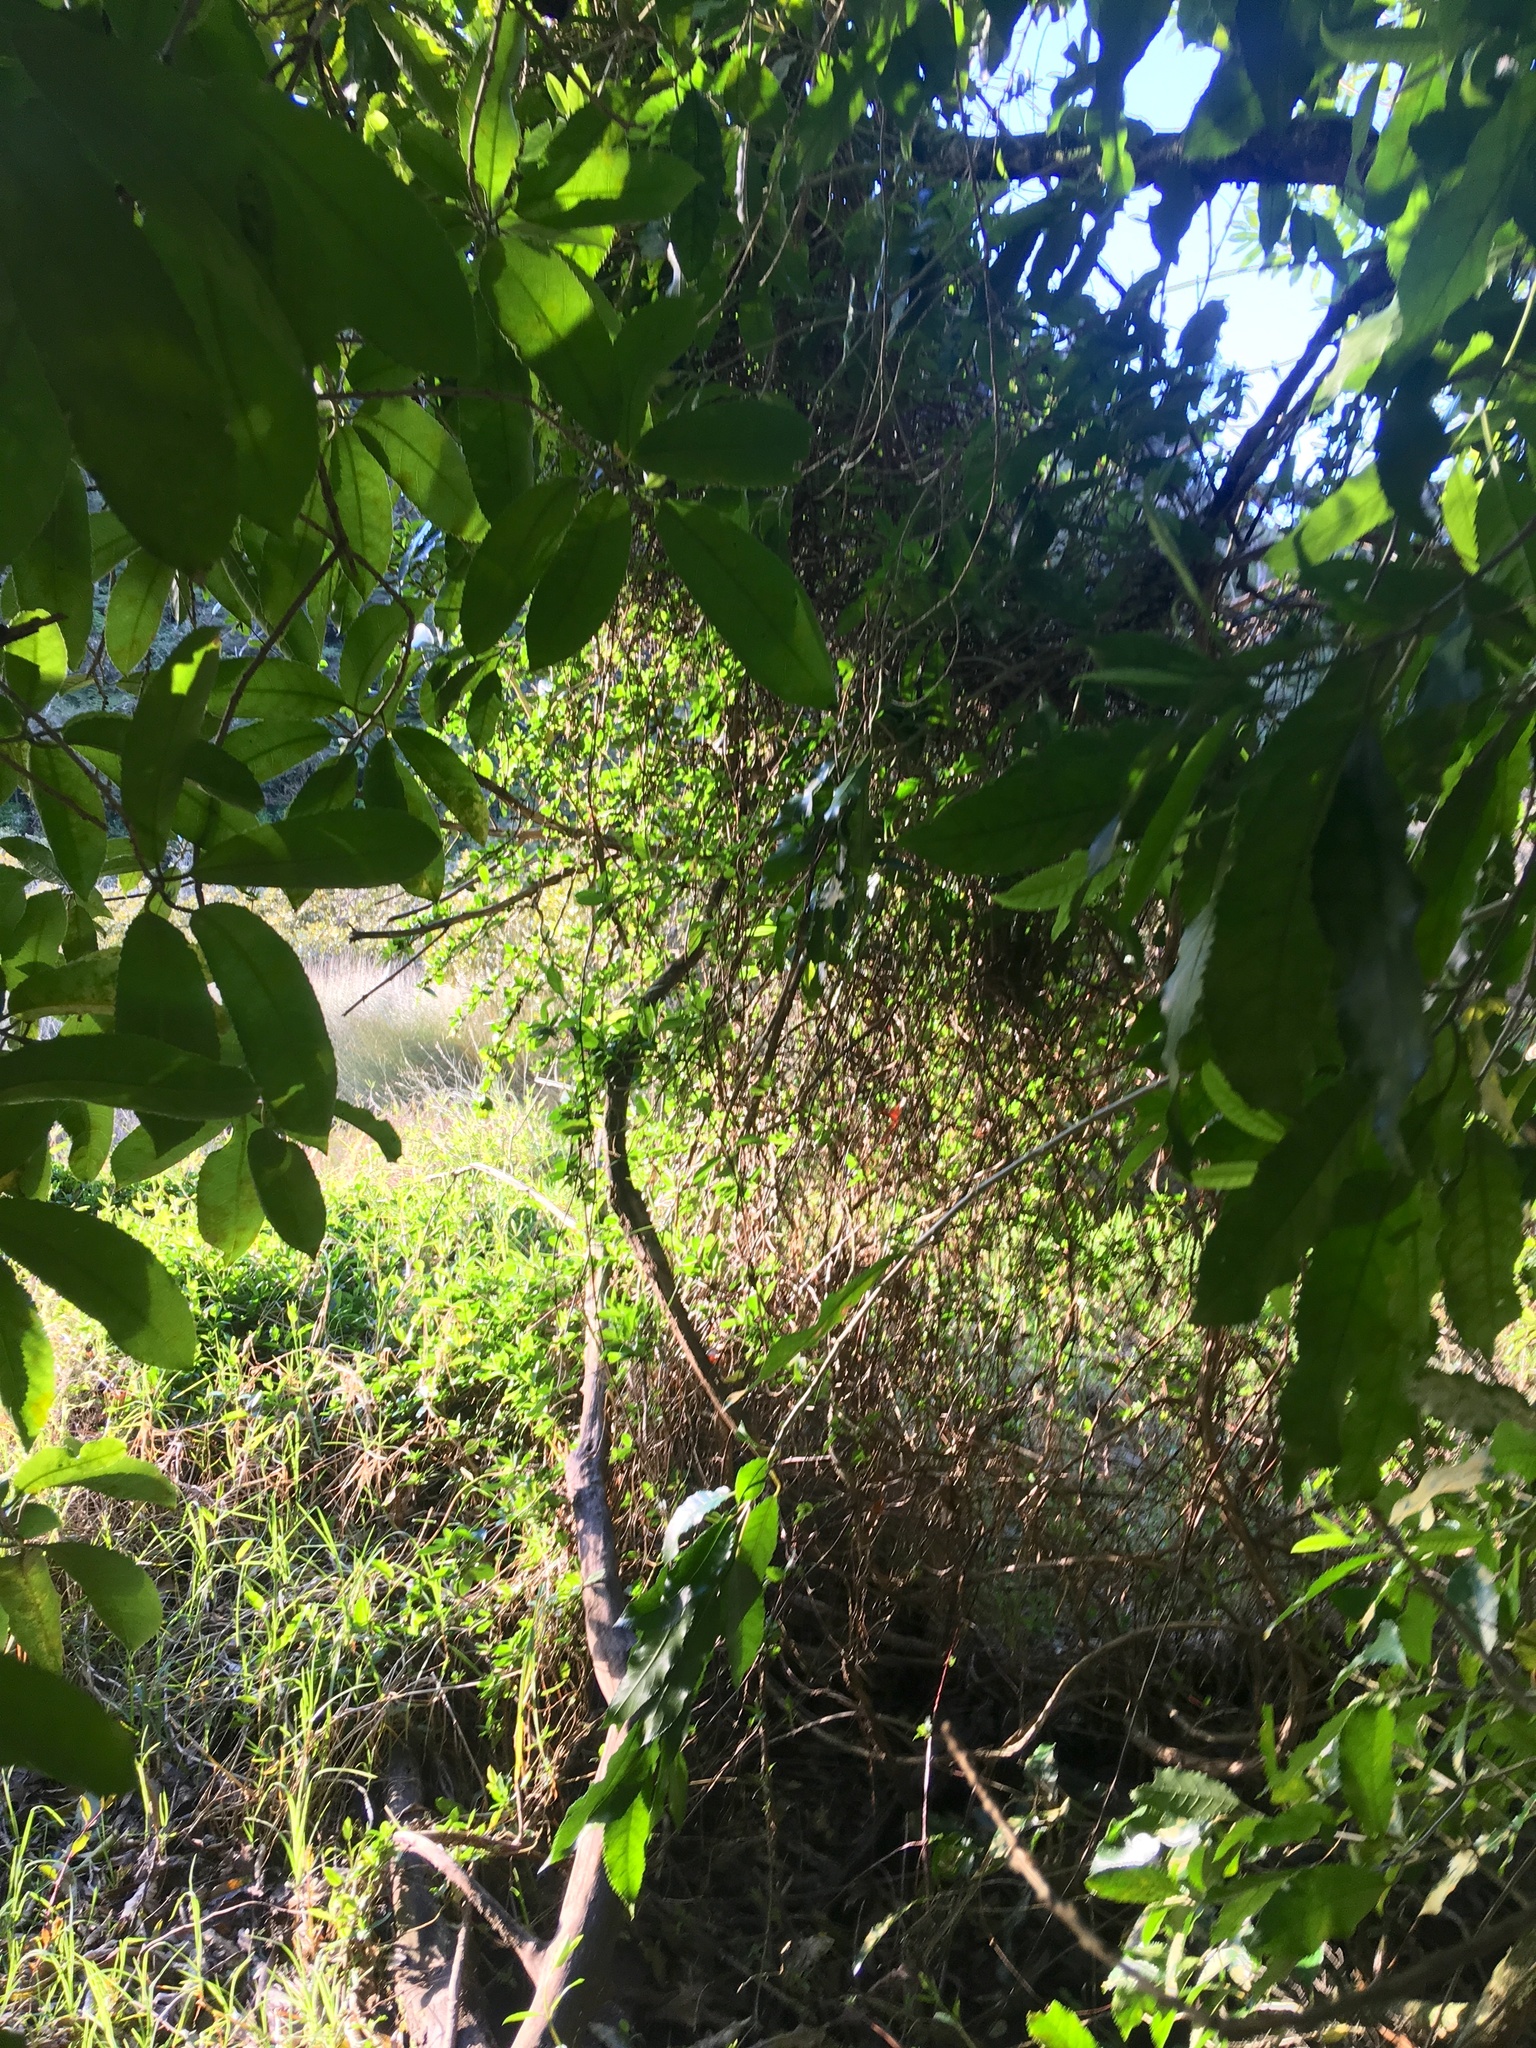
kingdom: Plantae
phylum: Tracheophyta
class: Liliopsida
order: Poales
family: Poaceae
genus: Cenchrus
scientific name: Cenchrus clandestinus
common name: Kikuyugrass
